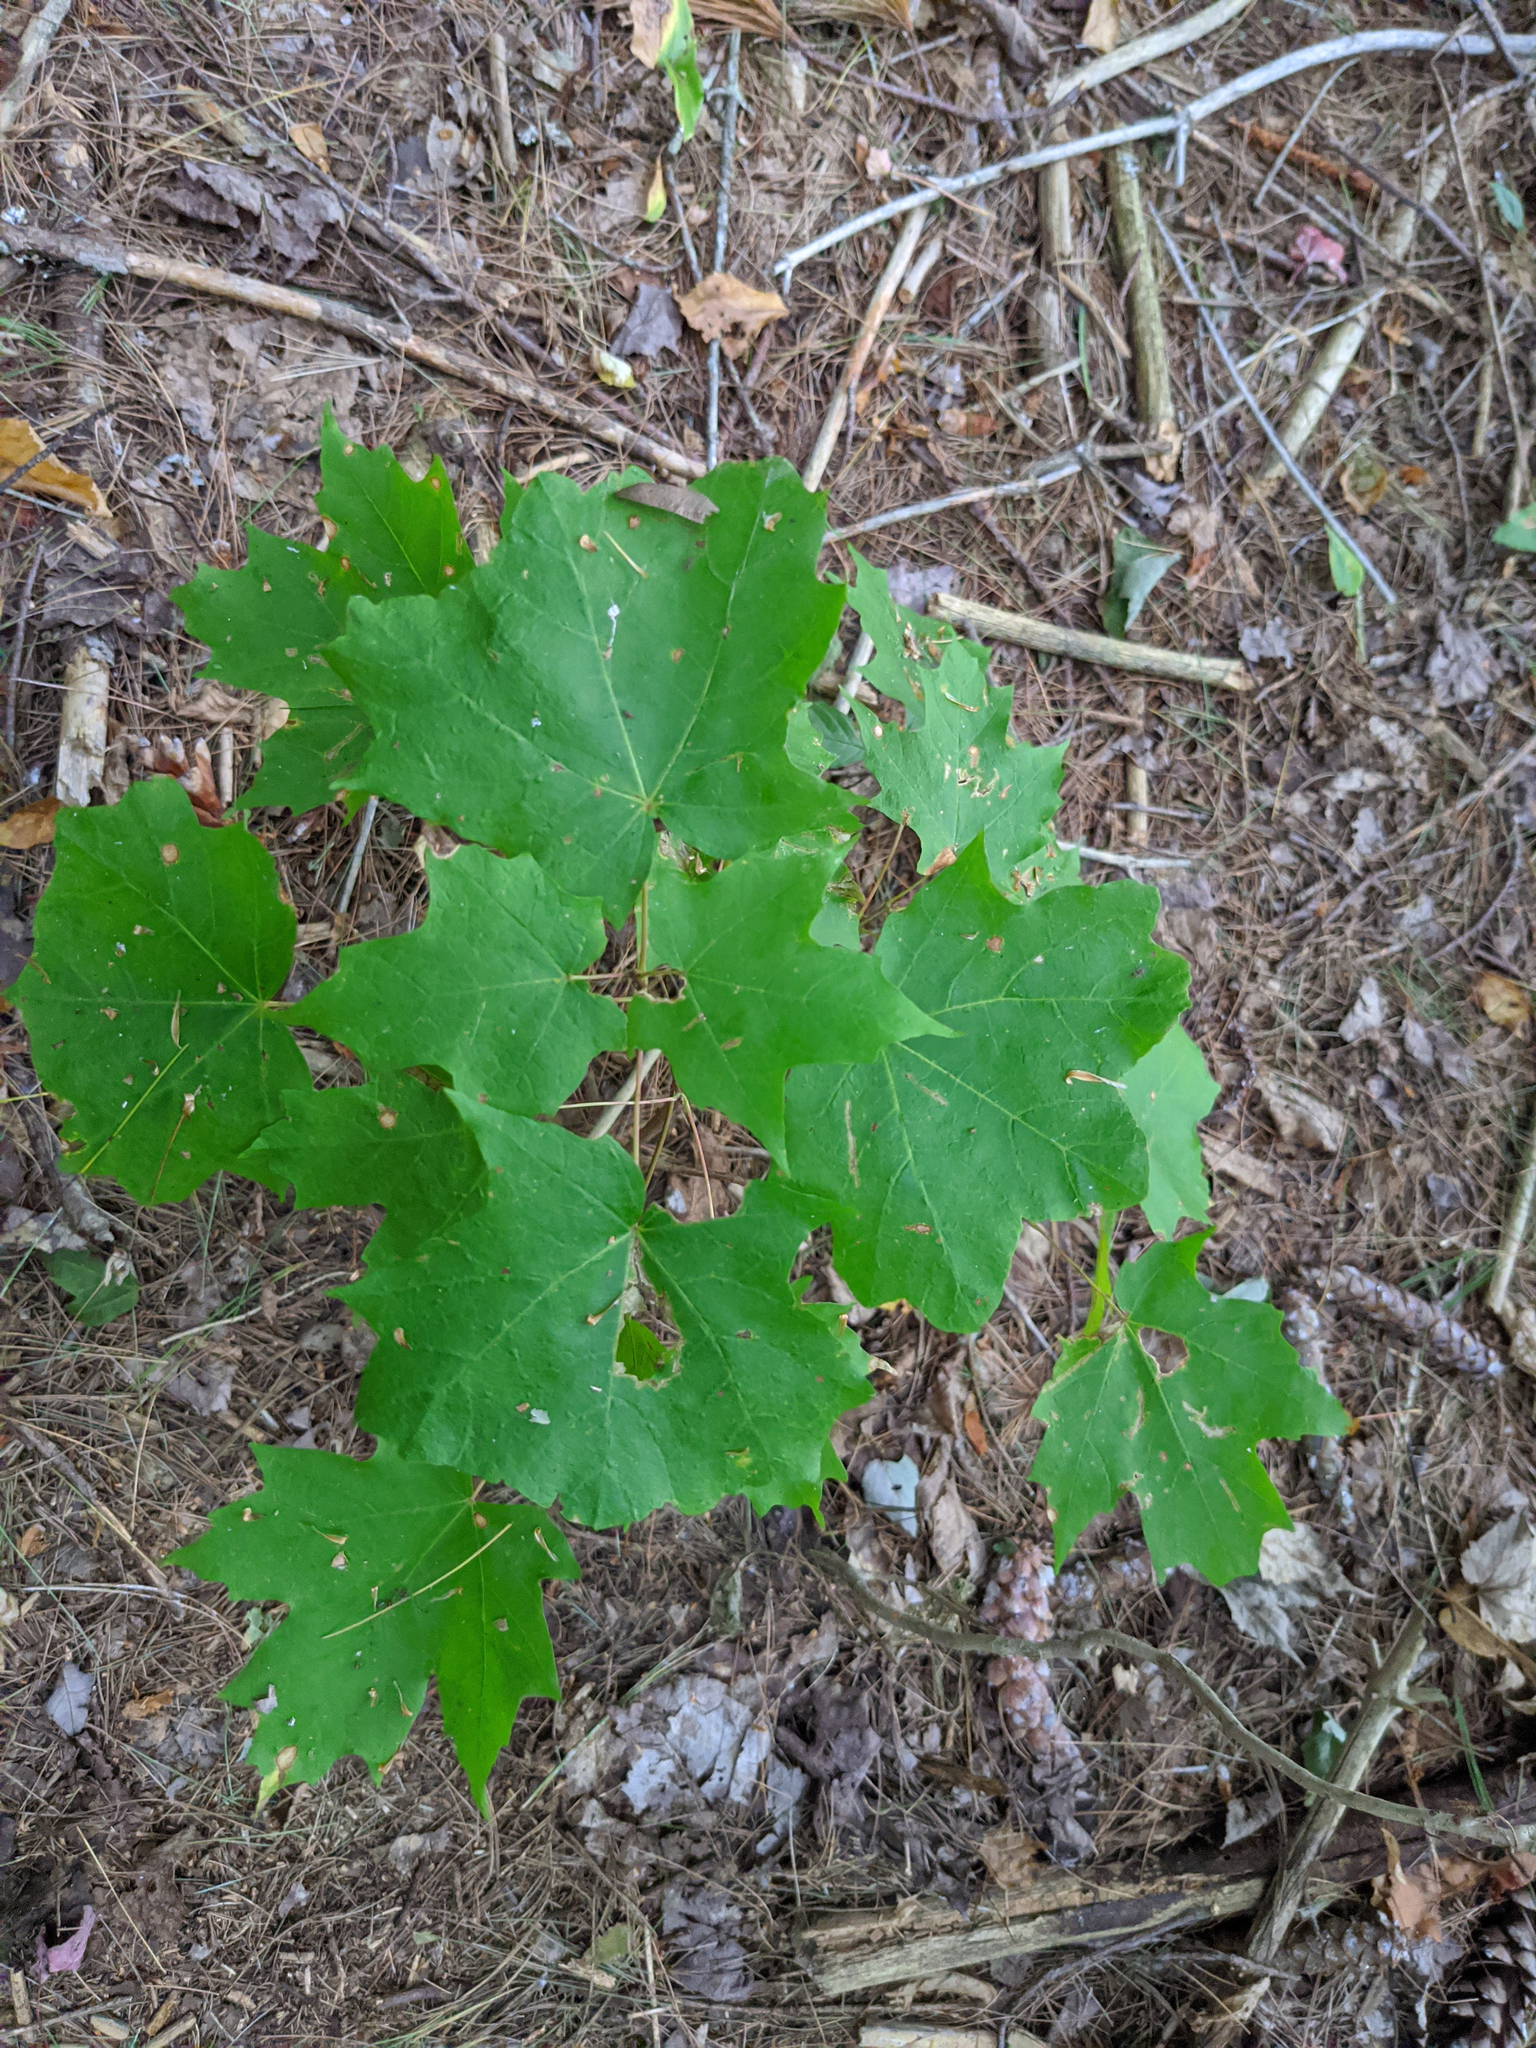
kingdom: Plantae
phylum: Tracheophyta
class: Magnoliopsida
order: Sapindales
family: Sapindaceae
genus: Acer
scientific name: Acer saccharum
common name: Sugar maple
